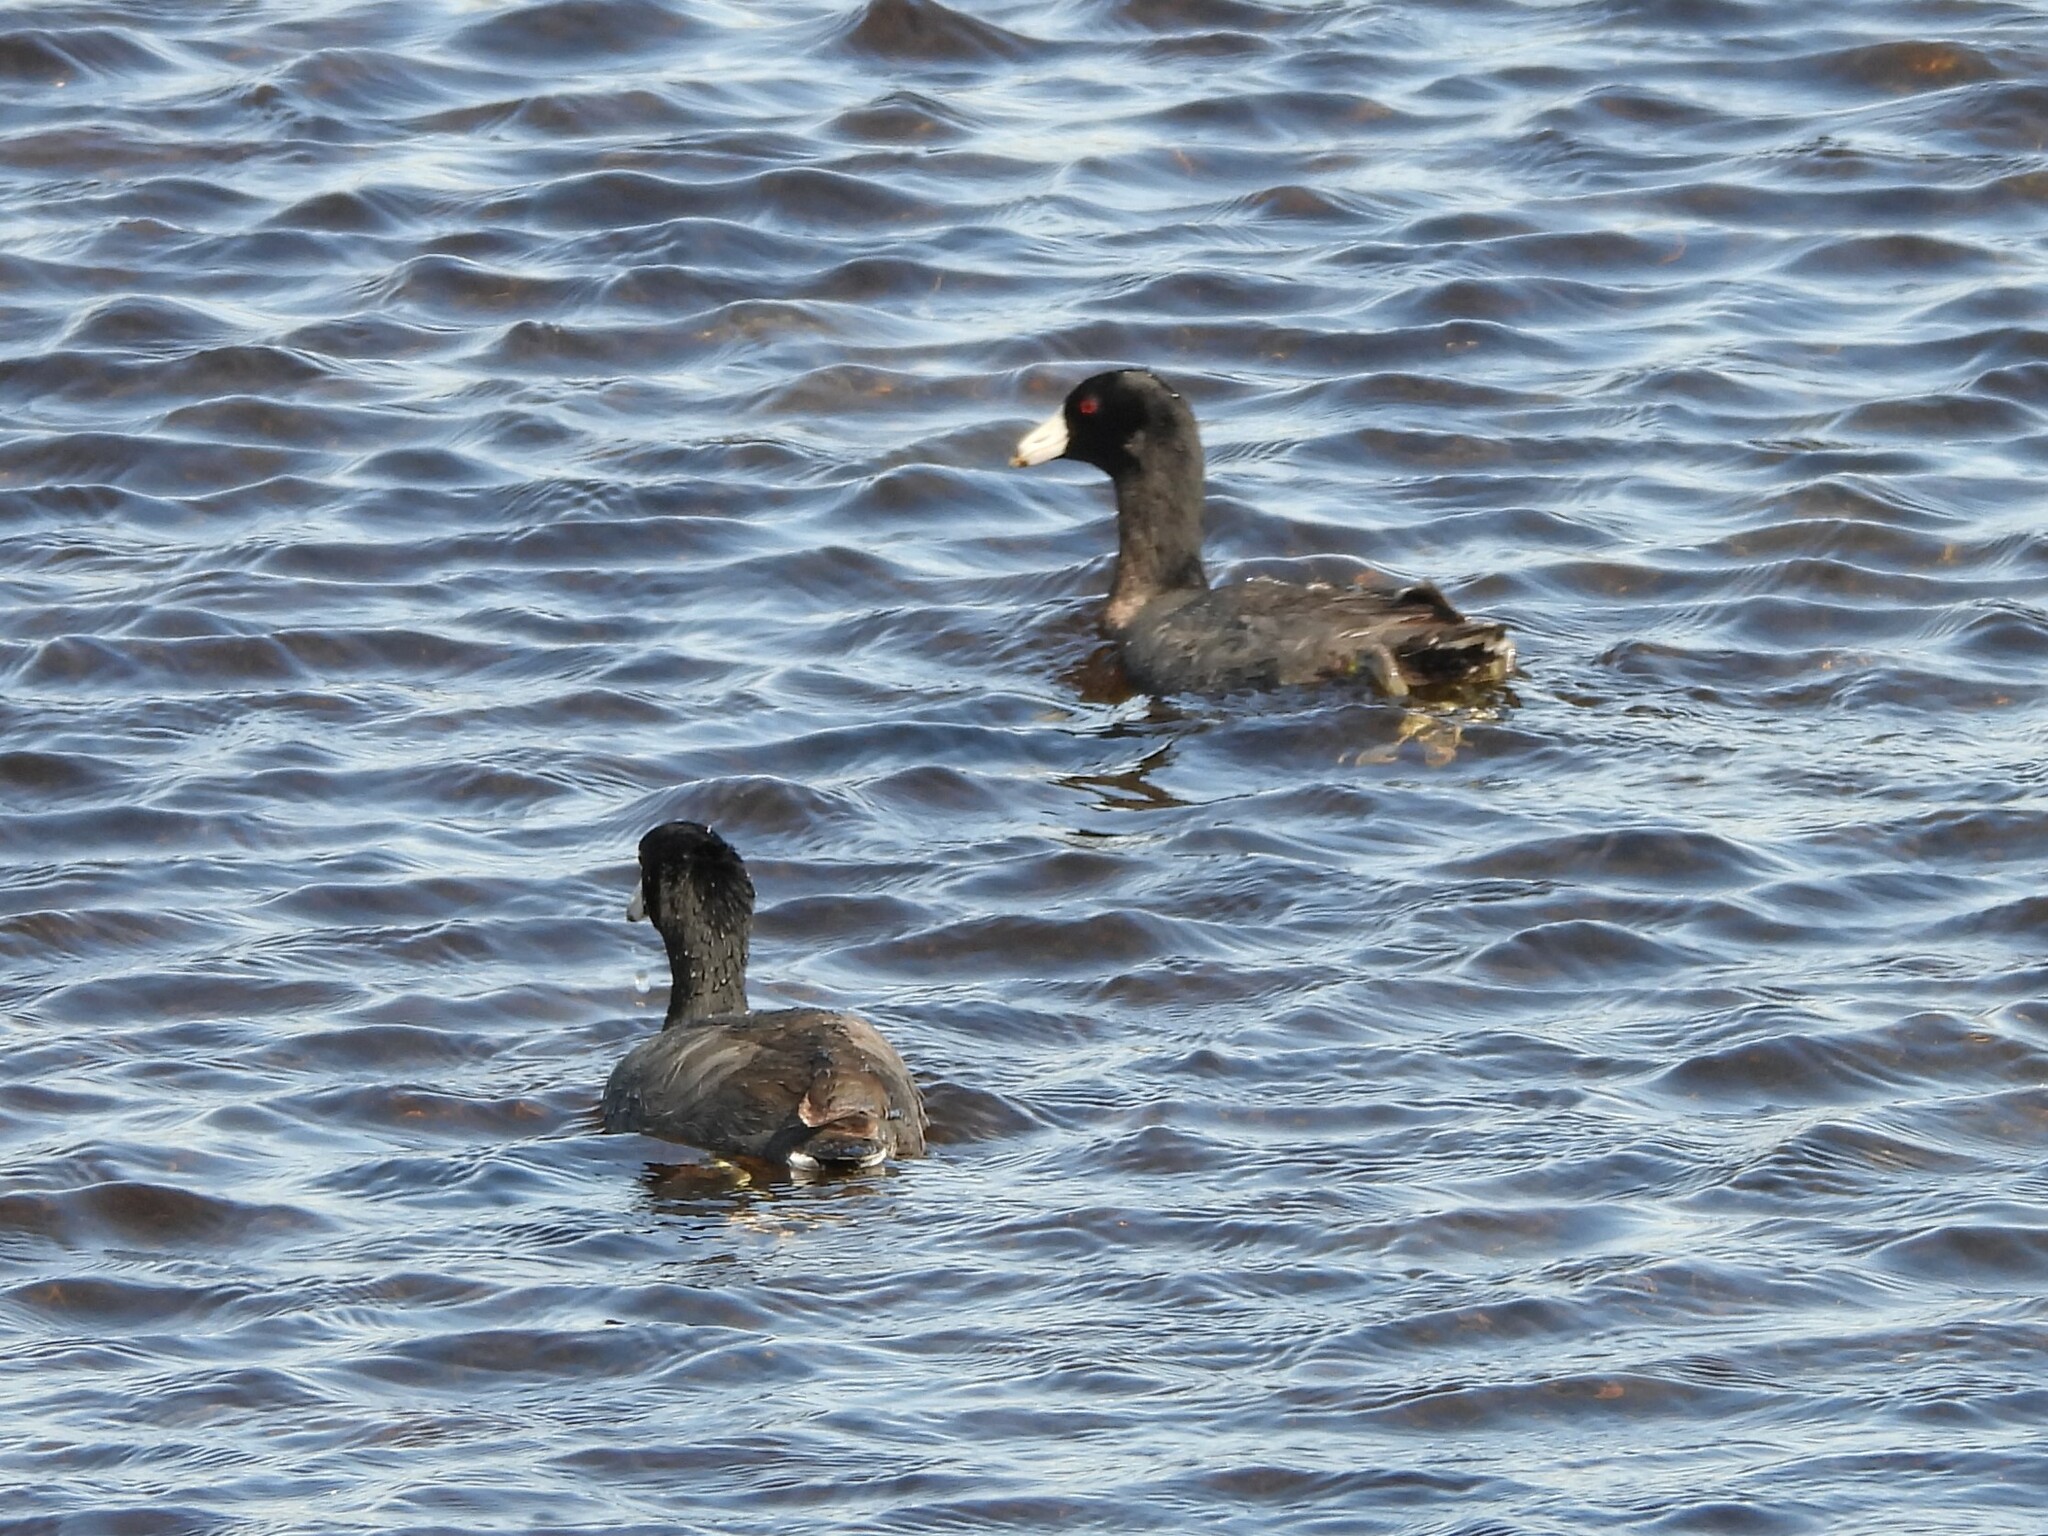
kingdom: Animalia
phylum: Chordata
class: Aves
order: Gruiformes
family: Rallidae
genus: Fulica
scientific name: Fulica americana
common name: American coot
